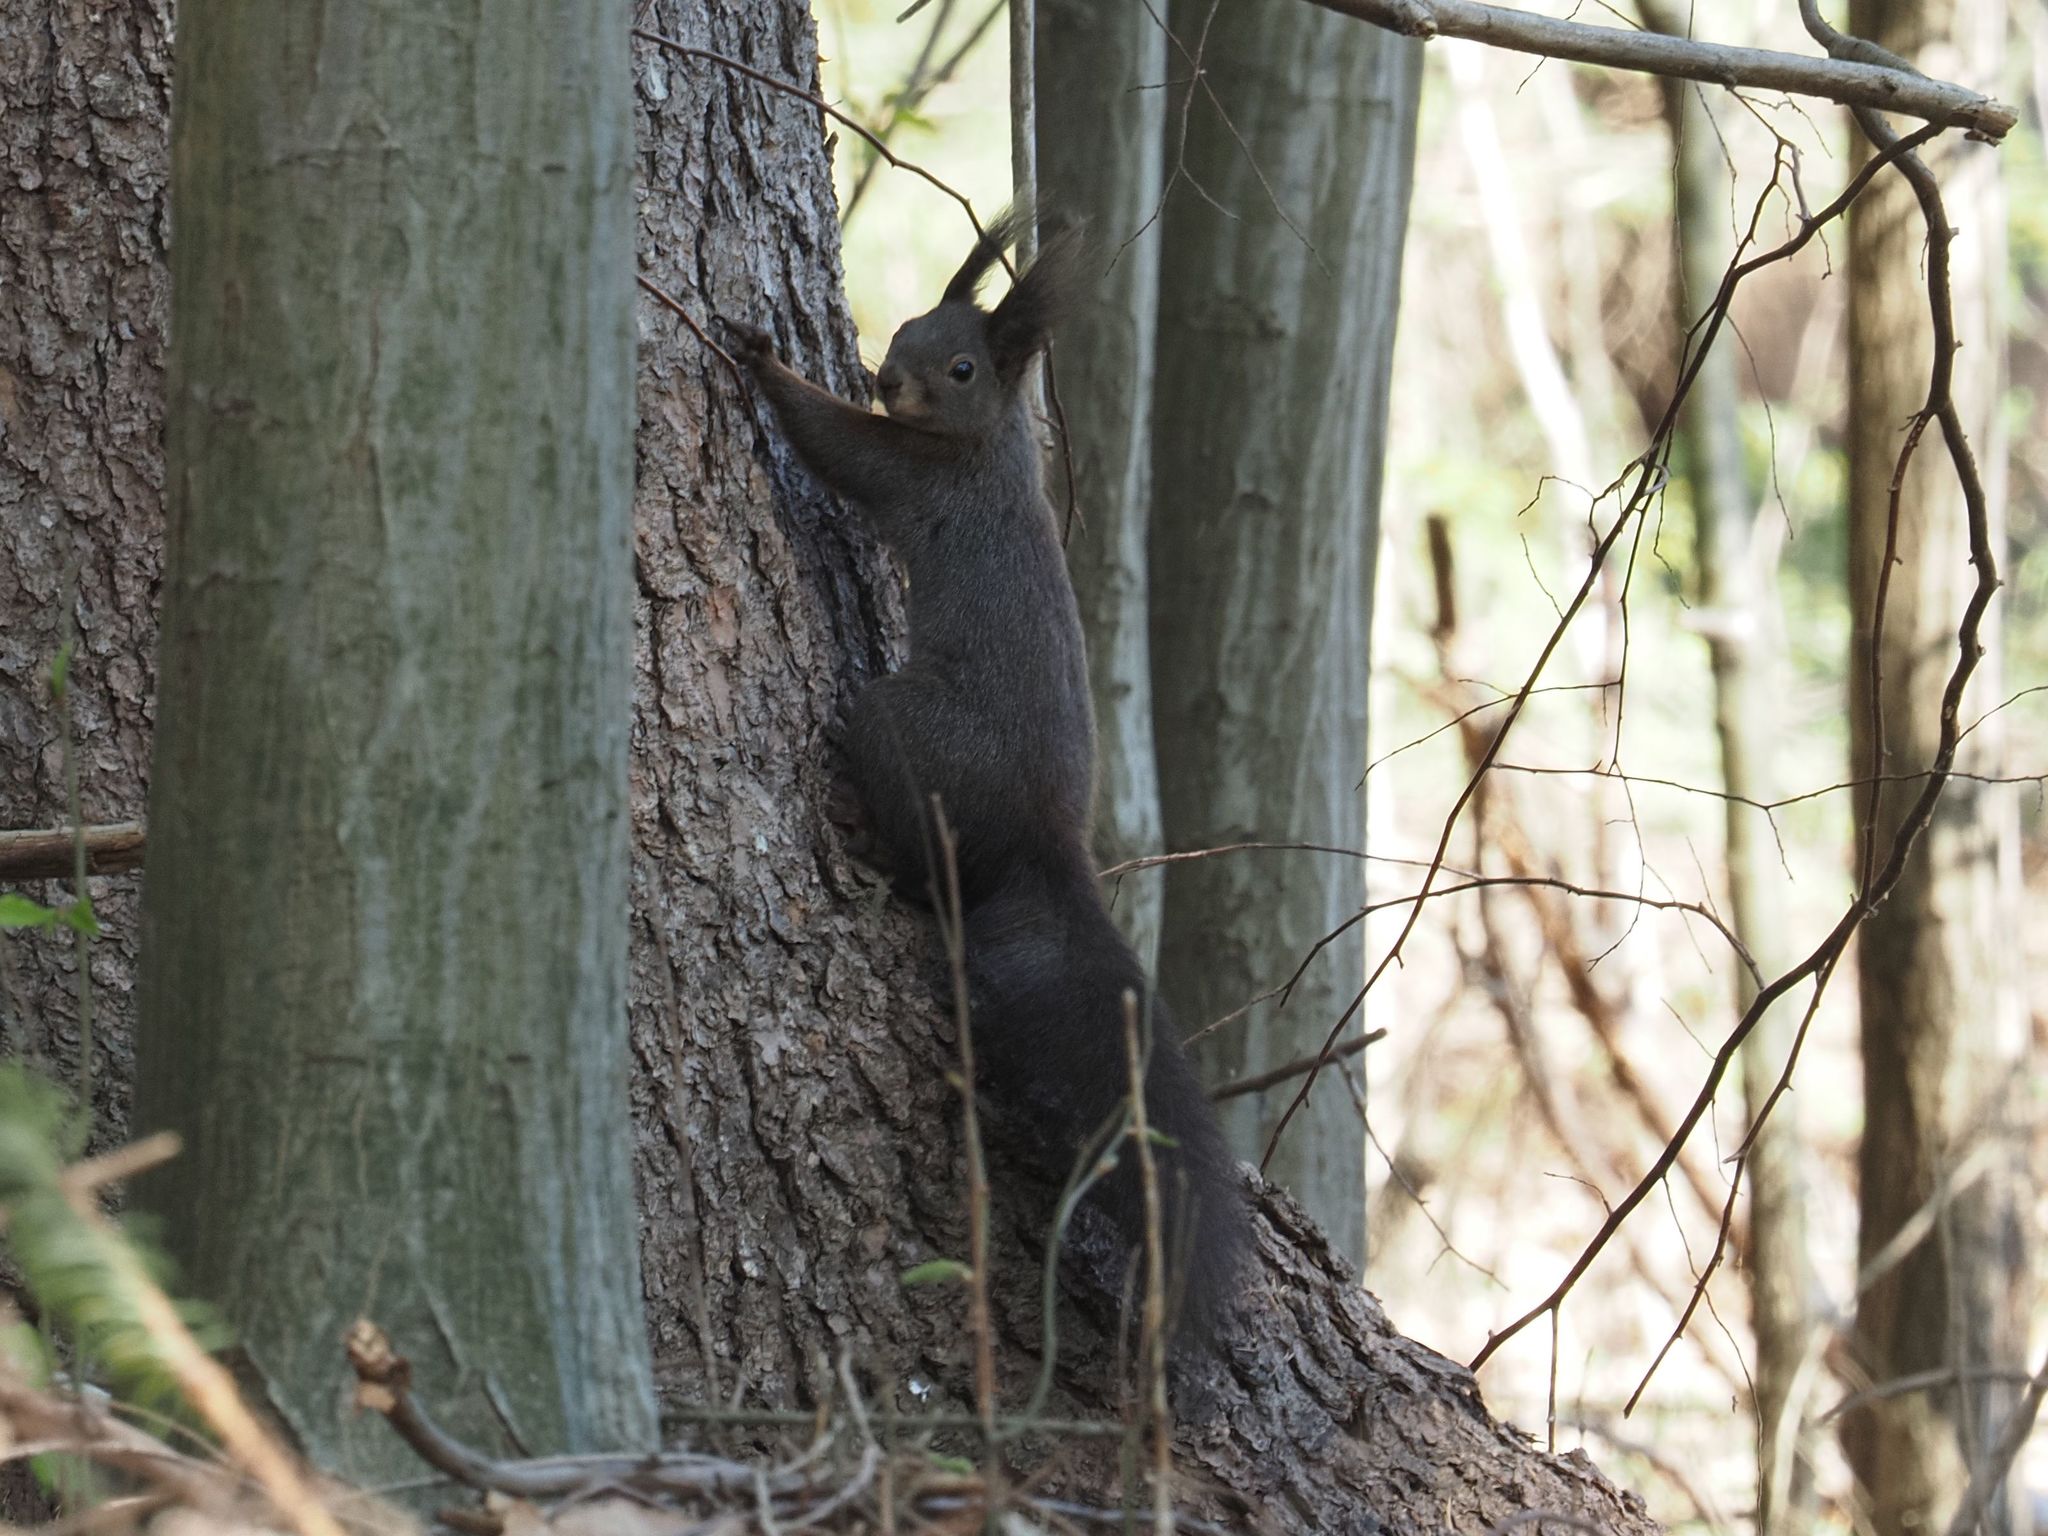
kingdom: Animalia
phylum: Chordata
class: Mammalia
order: Rodentia
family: Sciuridae
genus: Sciurus
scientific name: Sciurus vulgaris
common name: Eurasian red squirrel
